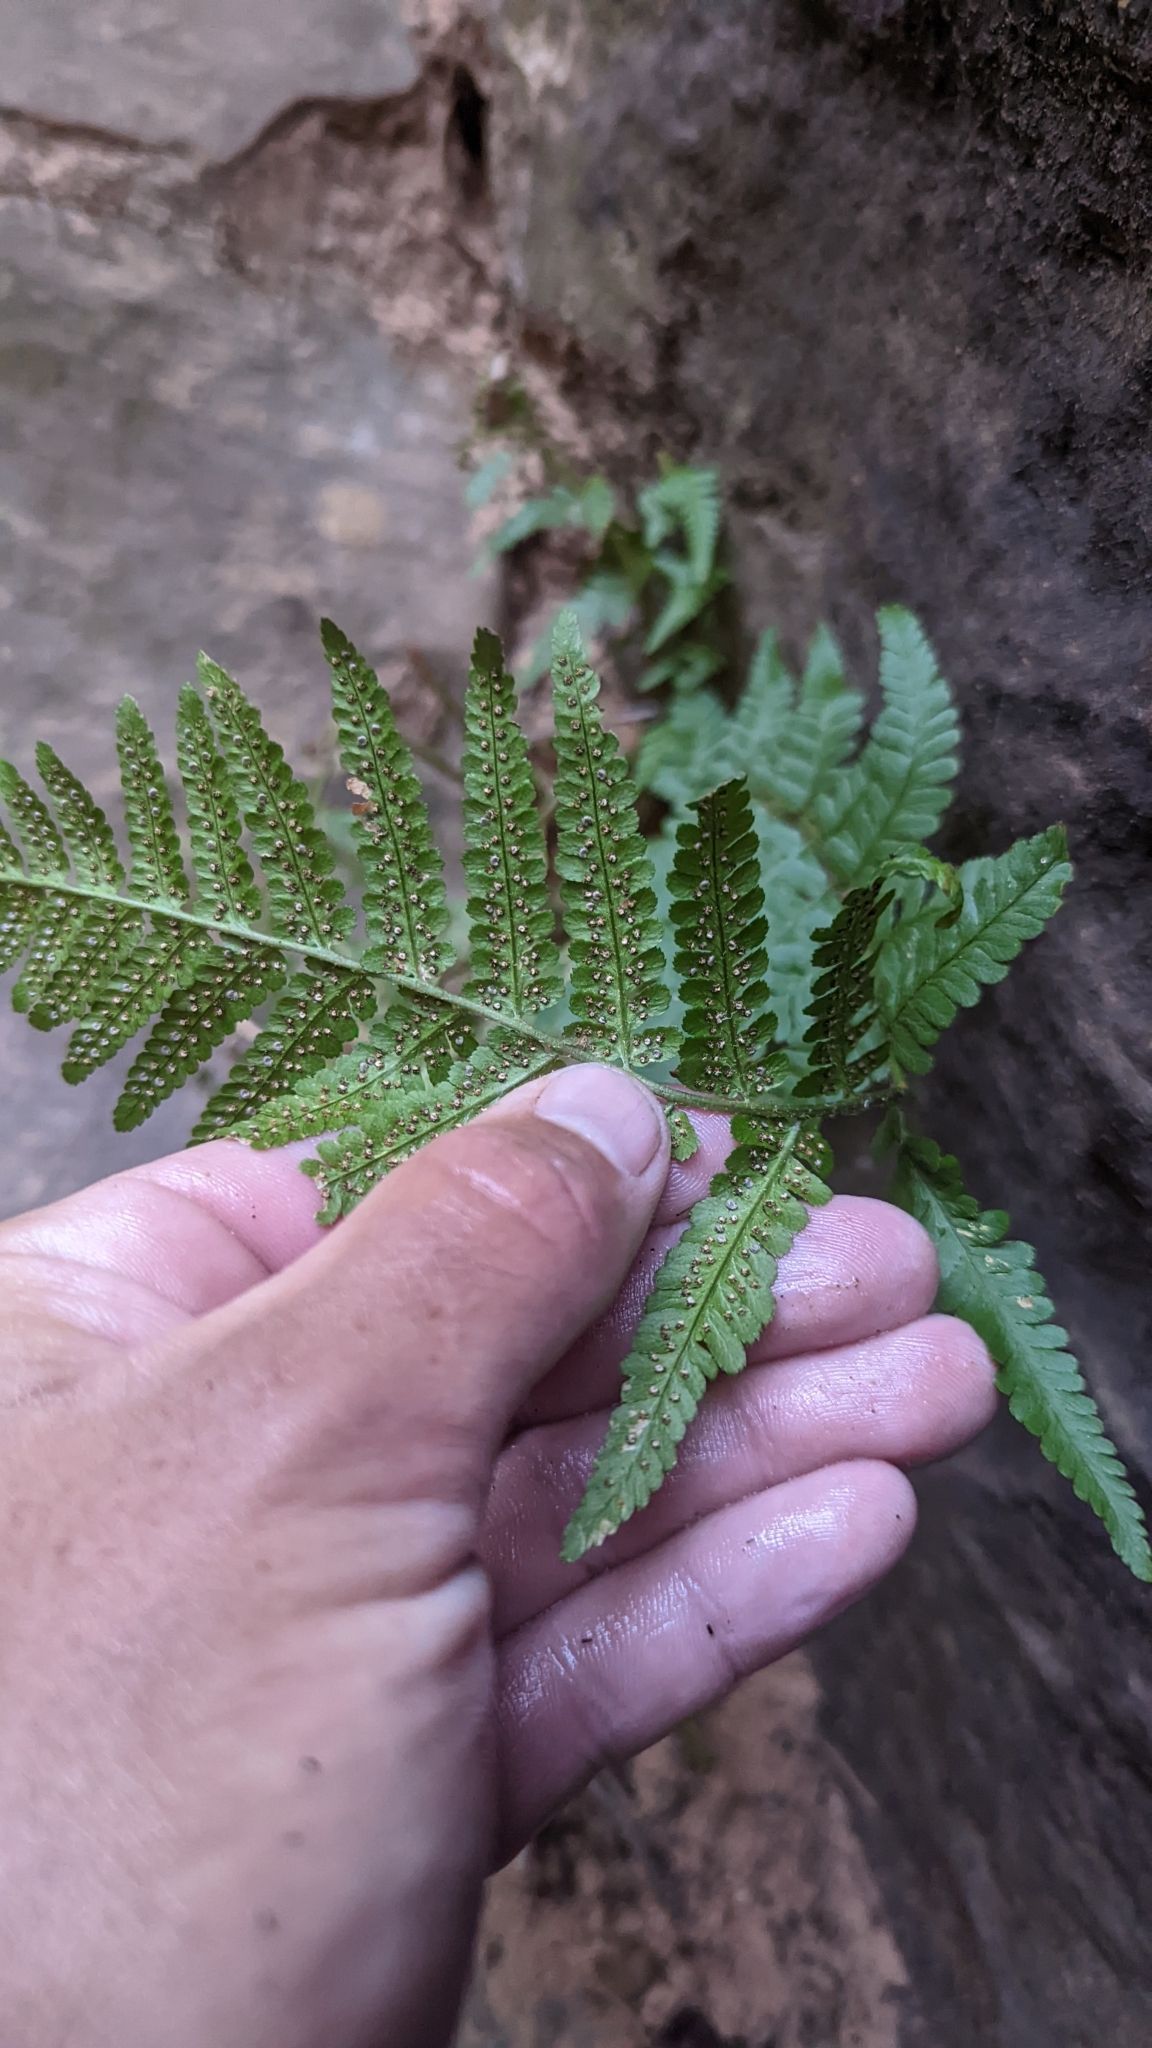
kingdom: Plantae
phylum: Tracheophyta
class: Polypodiopsida
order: Polypodiales
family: Dryopteridaceae
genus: Dryopteris
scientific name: Dryopteris filix-mas
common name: Male fern
